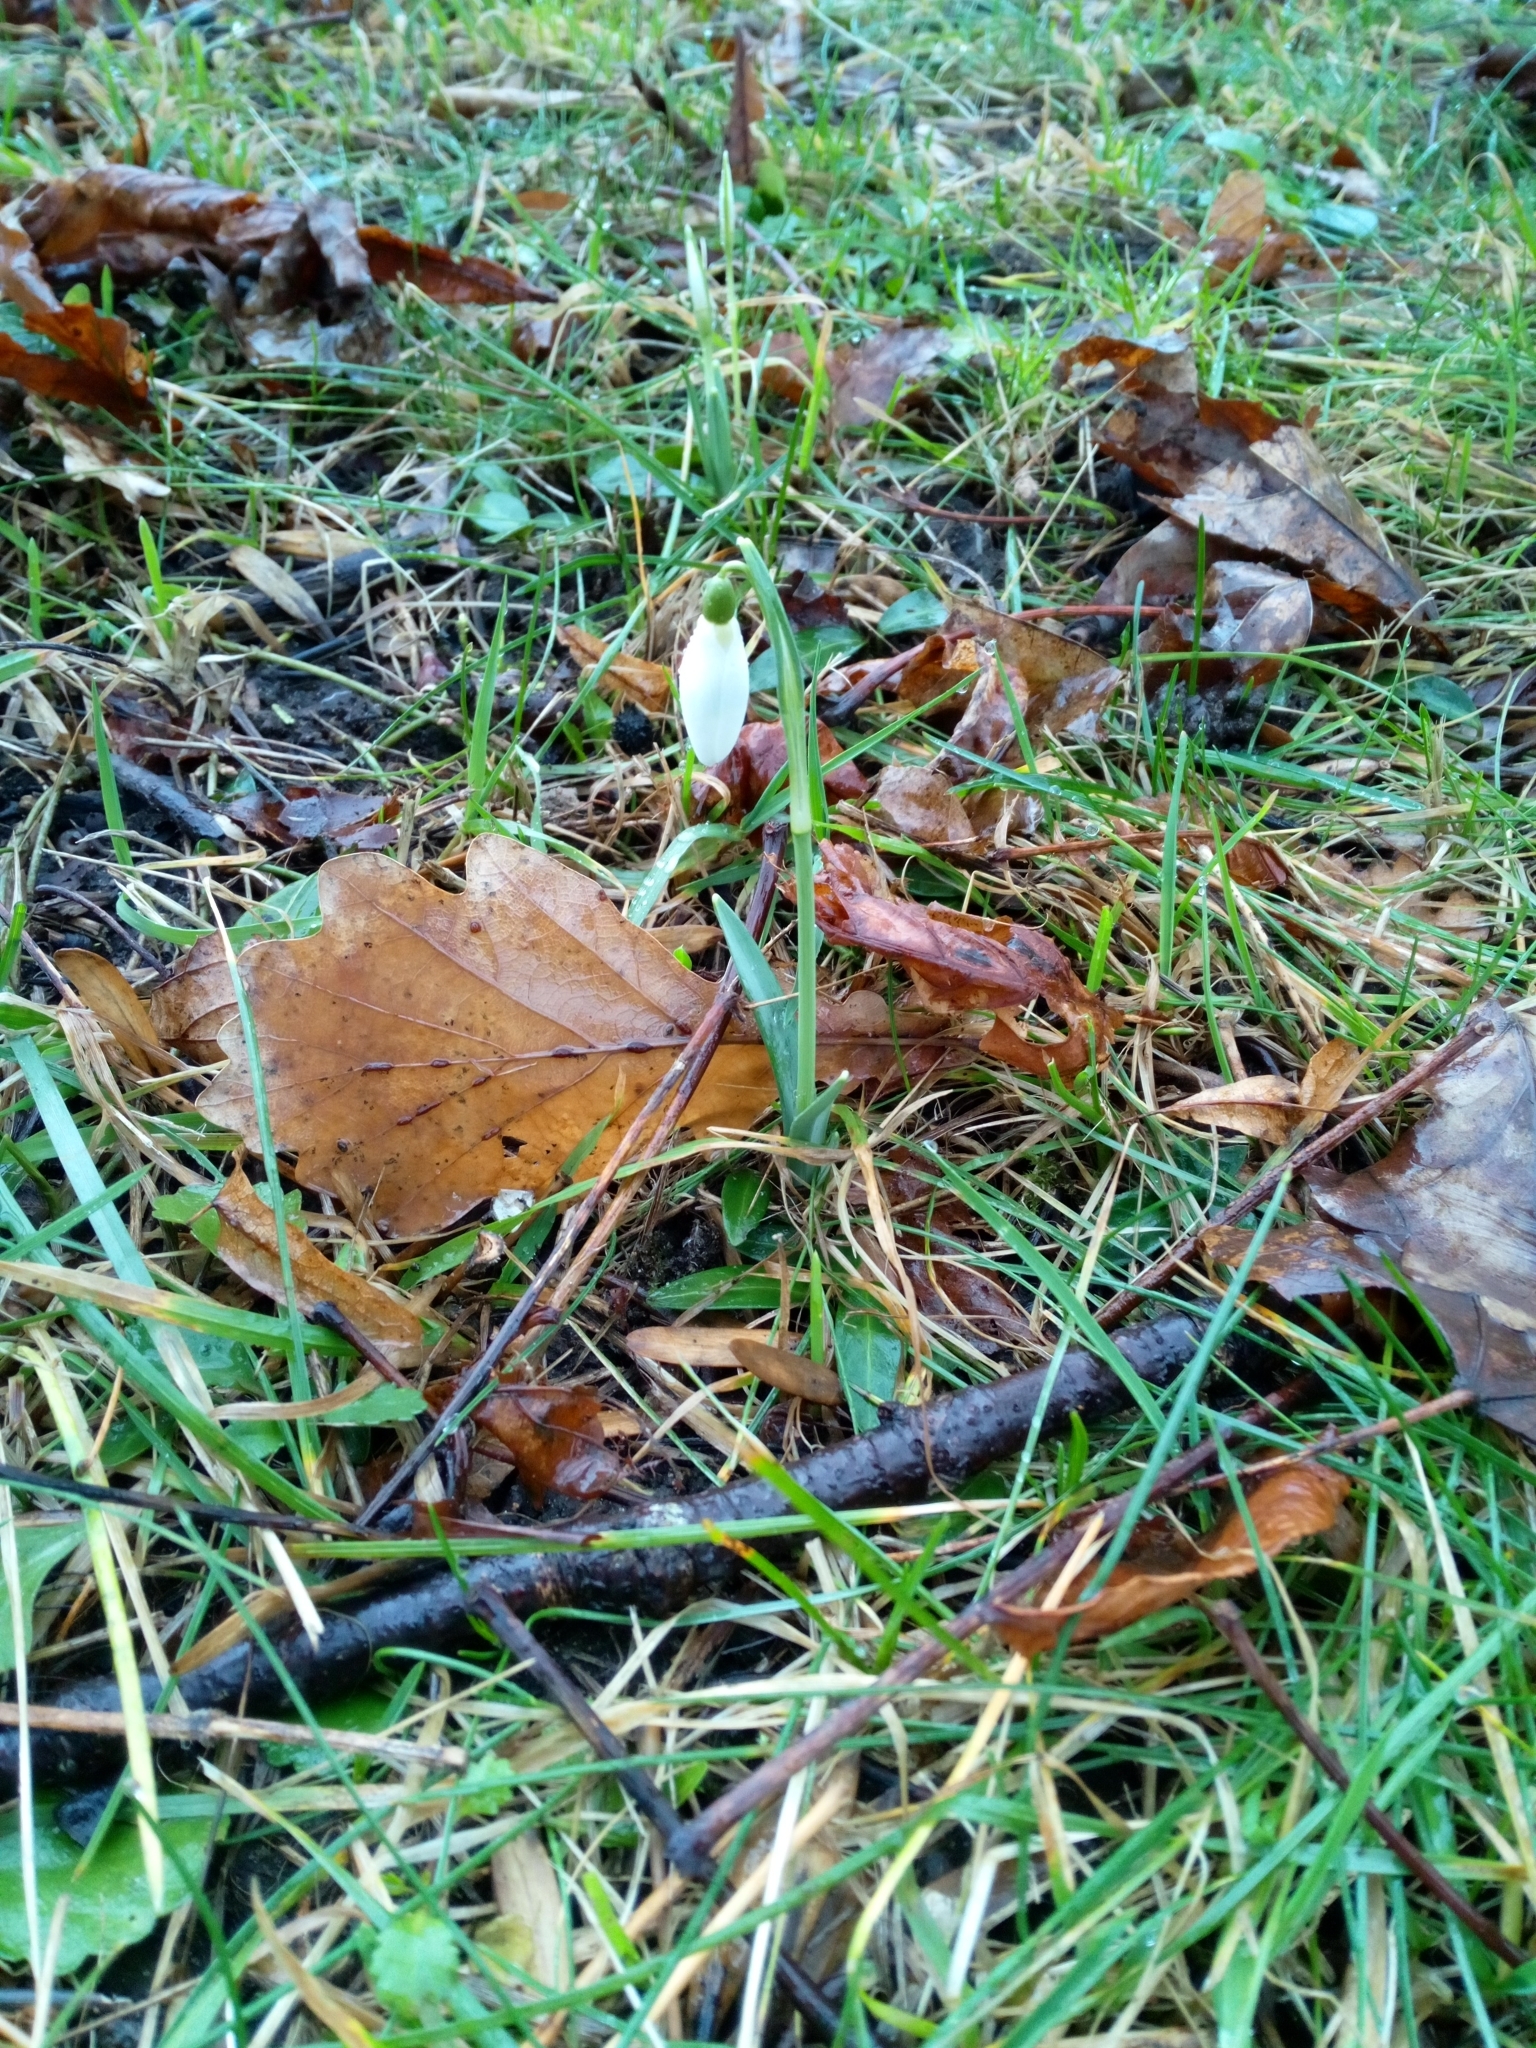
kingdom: Plantae
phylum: Tracheophyta
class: Liliopsida
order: Asparagales
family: Amaryllidaceae
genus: Galanthus
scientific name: Galanthus nivalis
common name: Snowdrop
